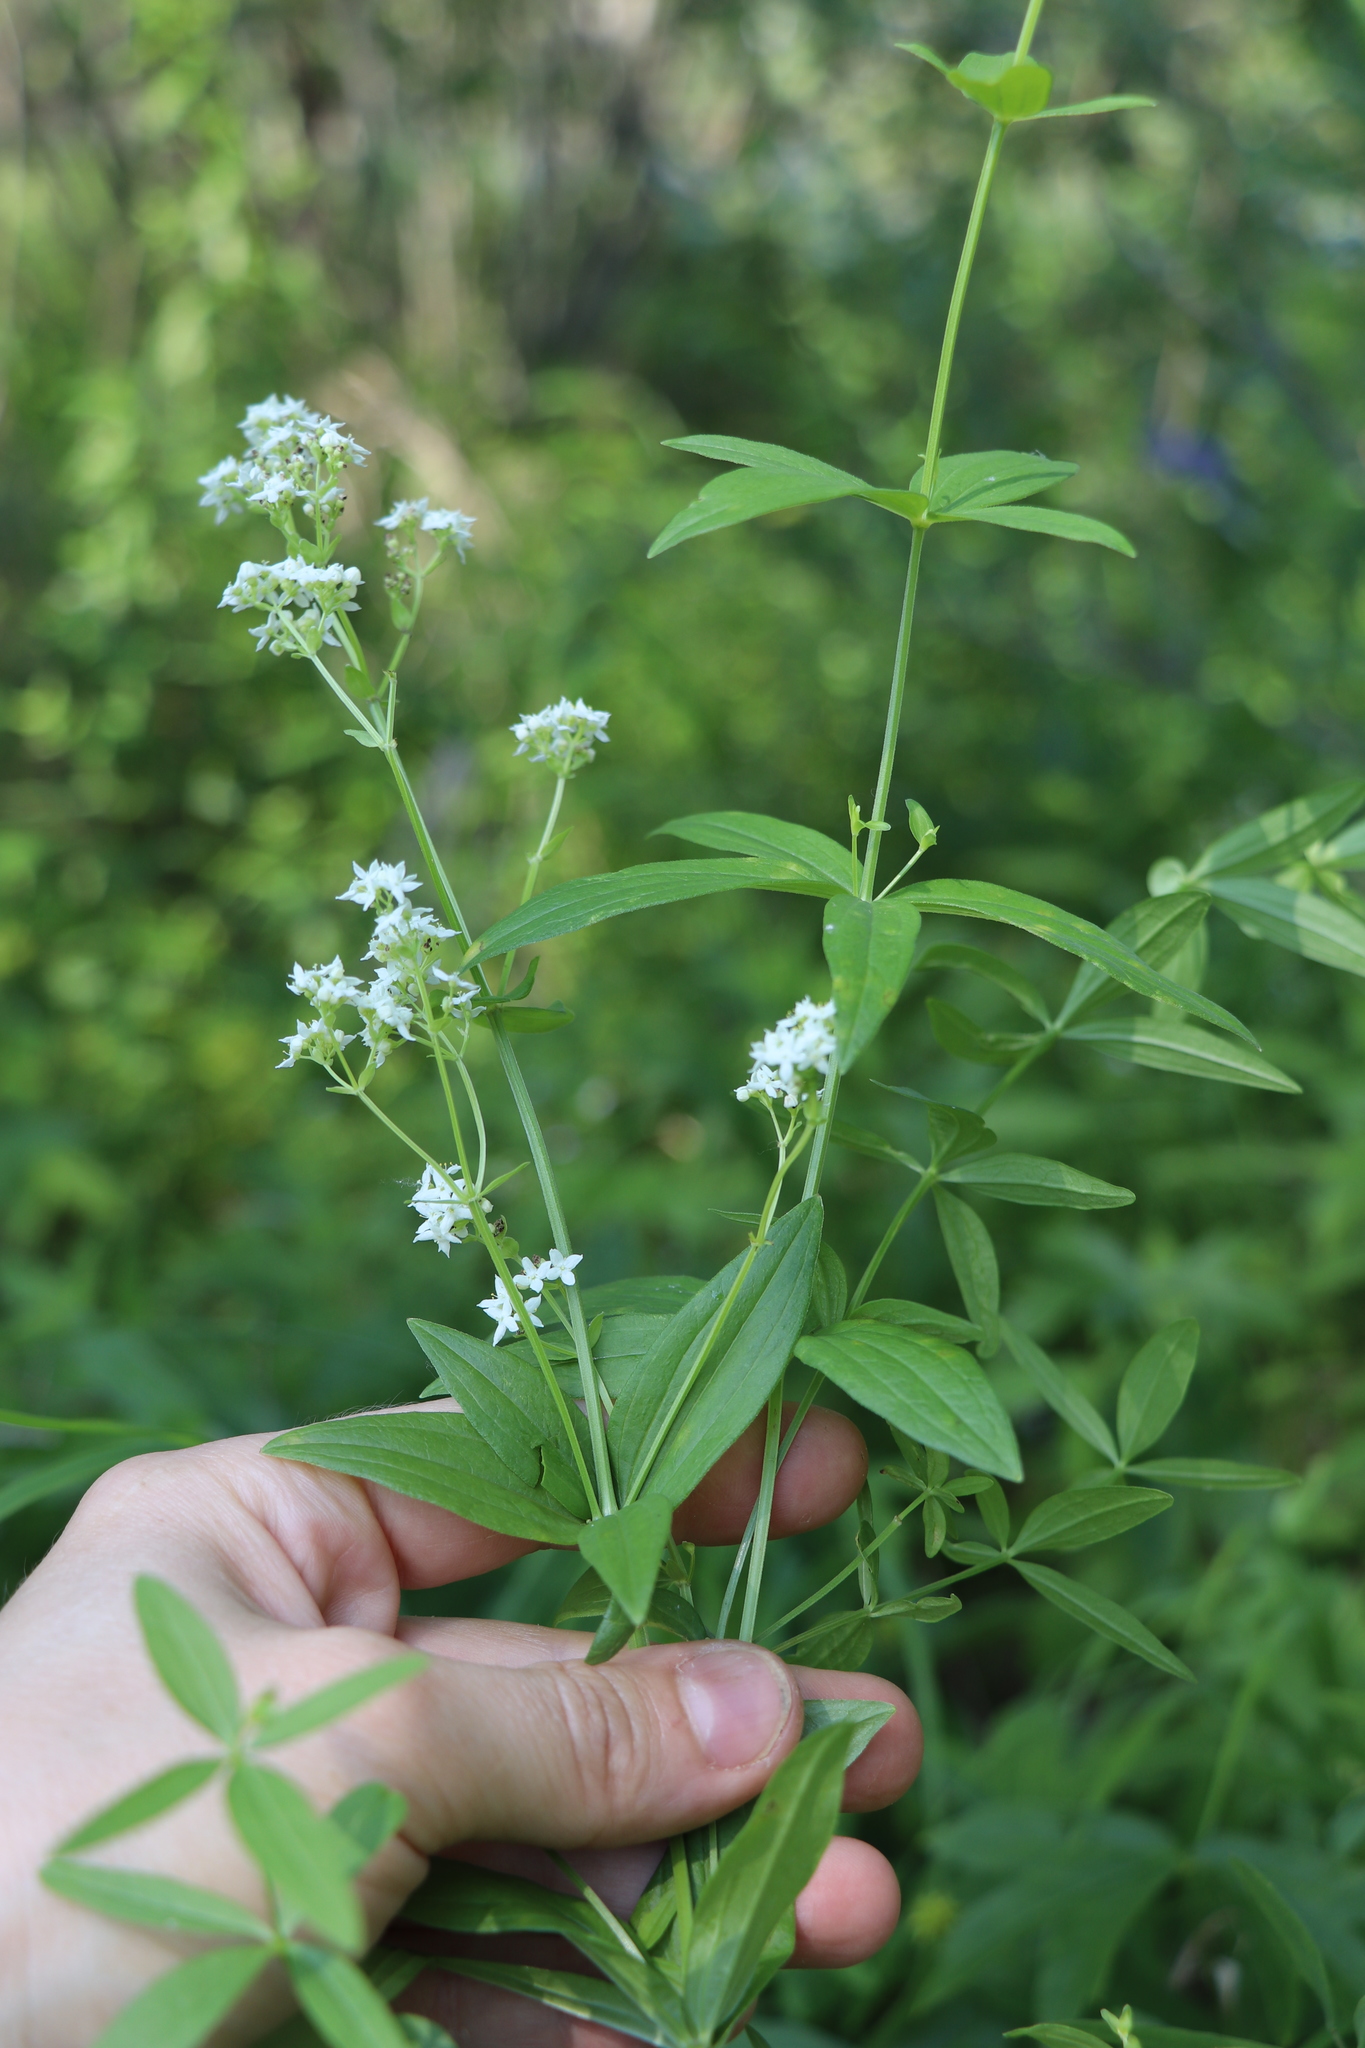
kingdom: Plantae
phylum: Tracheophyta
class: Magnoliopsida
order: Gentianales
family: Rubiaceae
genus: Galium
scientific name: Galium boreale
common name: Northern bedstraw
